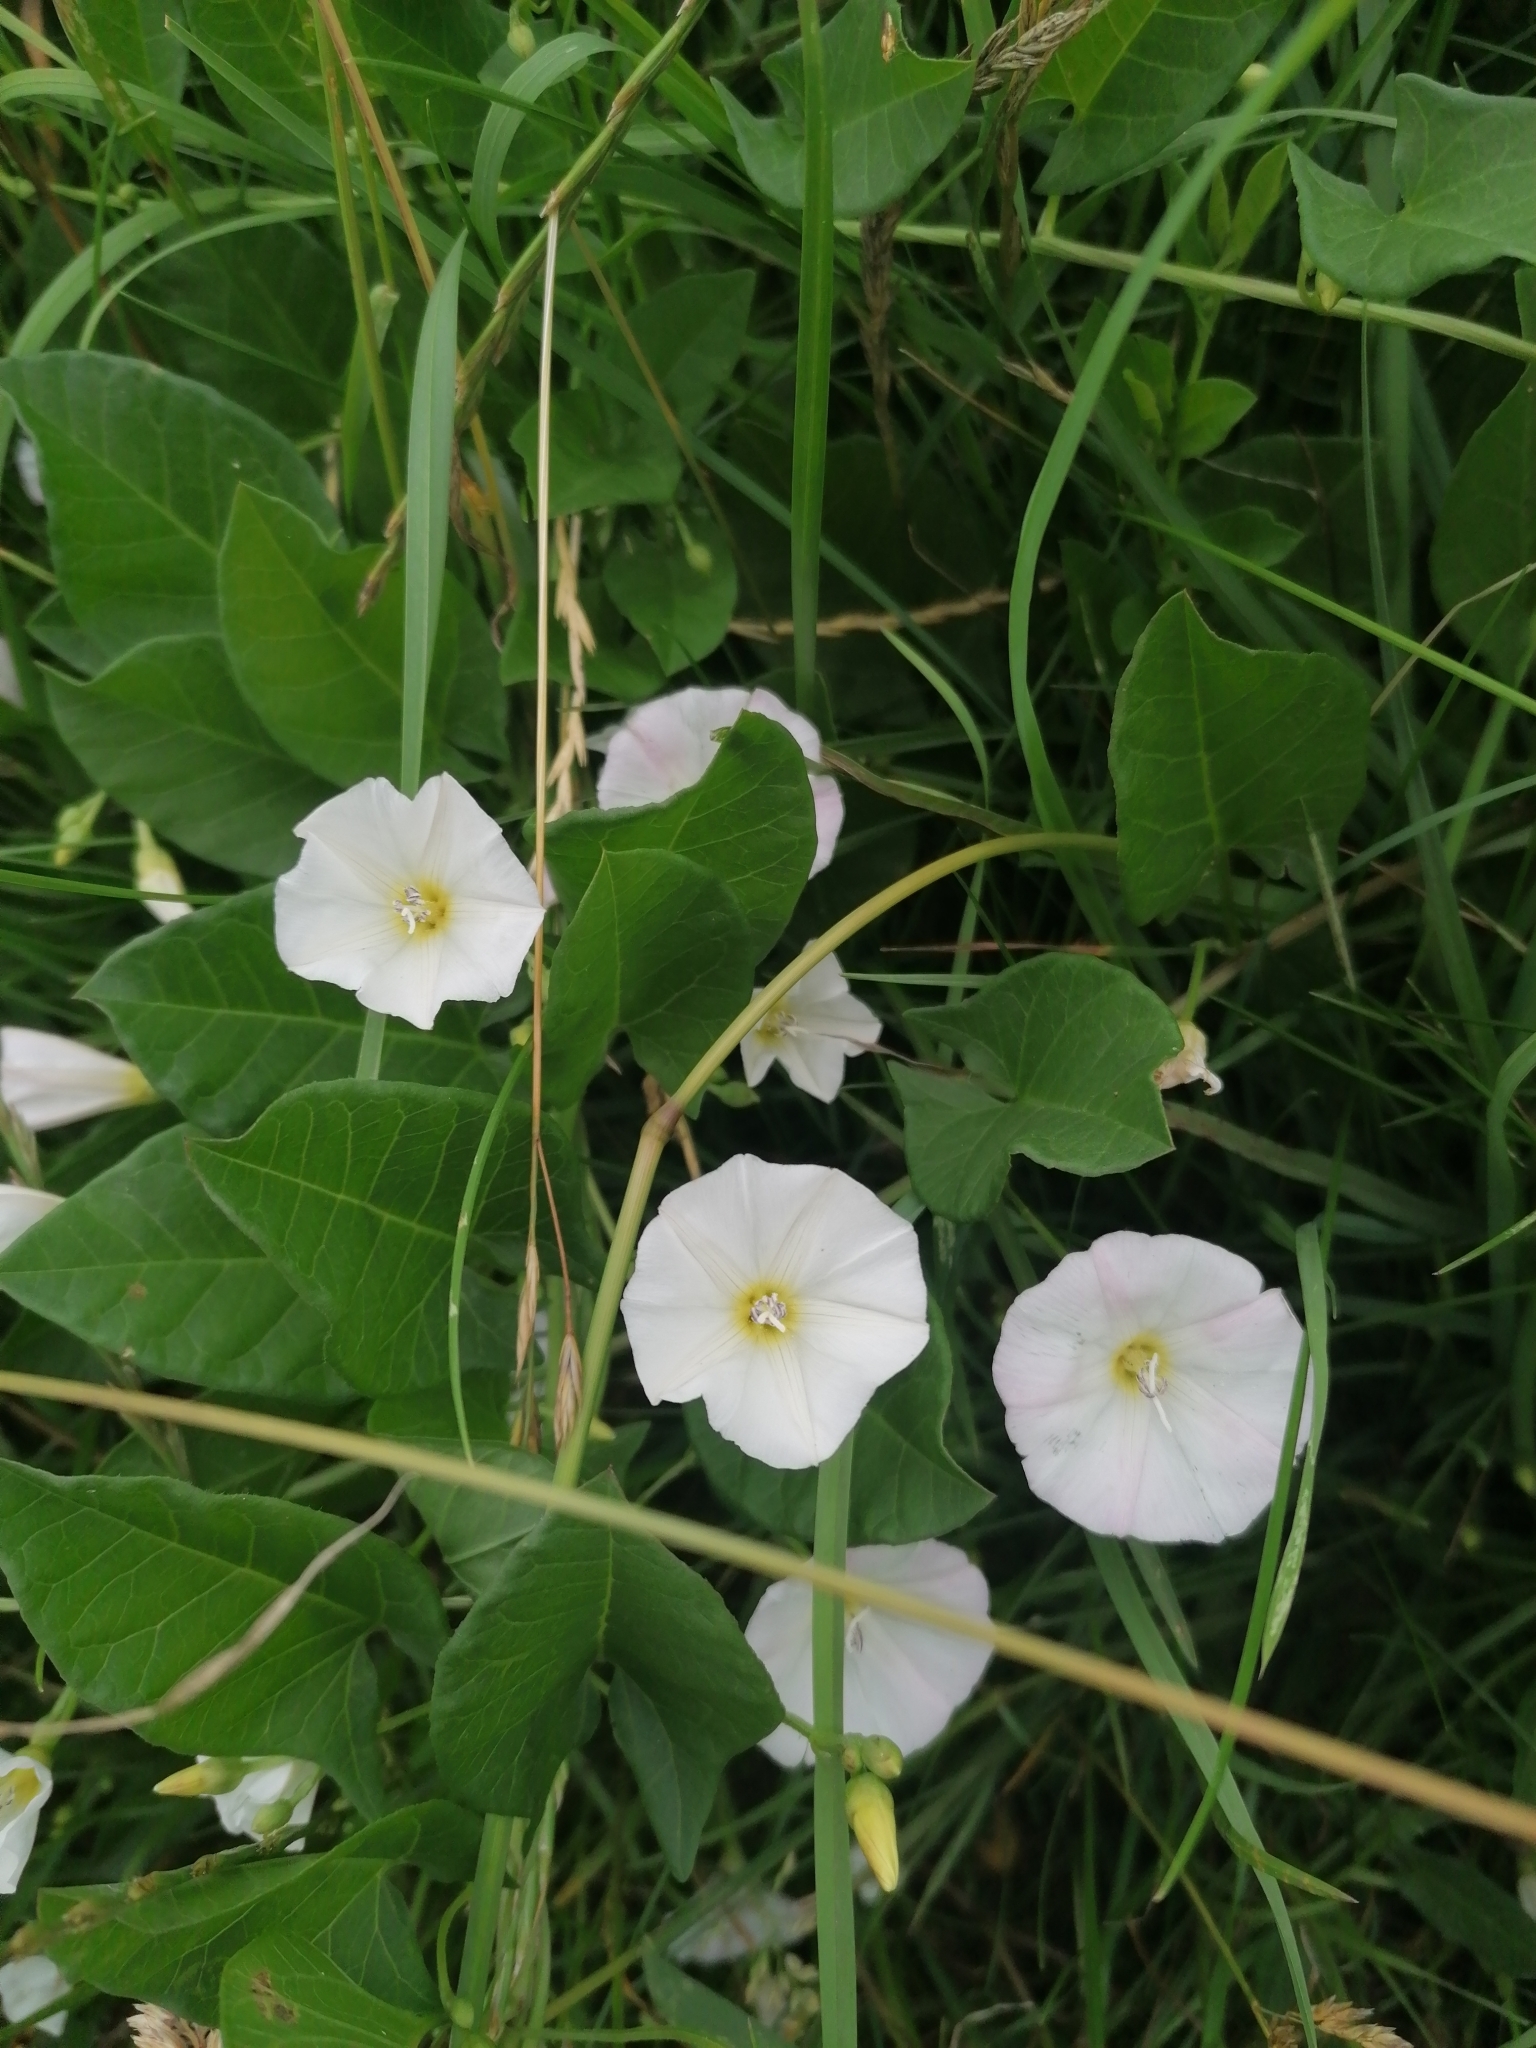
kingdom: Plantae
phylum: Tracheophyta
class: Magnoliopsida
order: Solanales
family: Convolvulaceae
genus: Convolvulus
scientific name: Convolvulus arvensis
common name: Field bindweed
